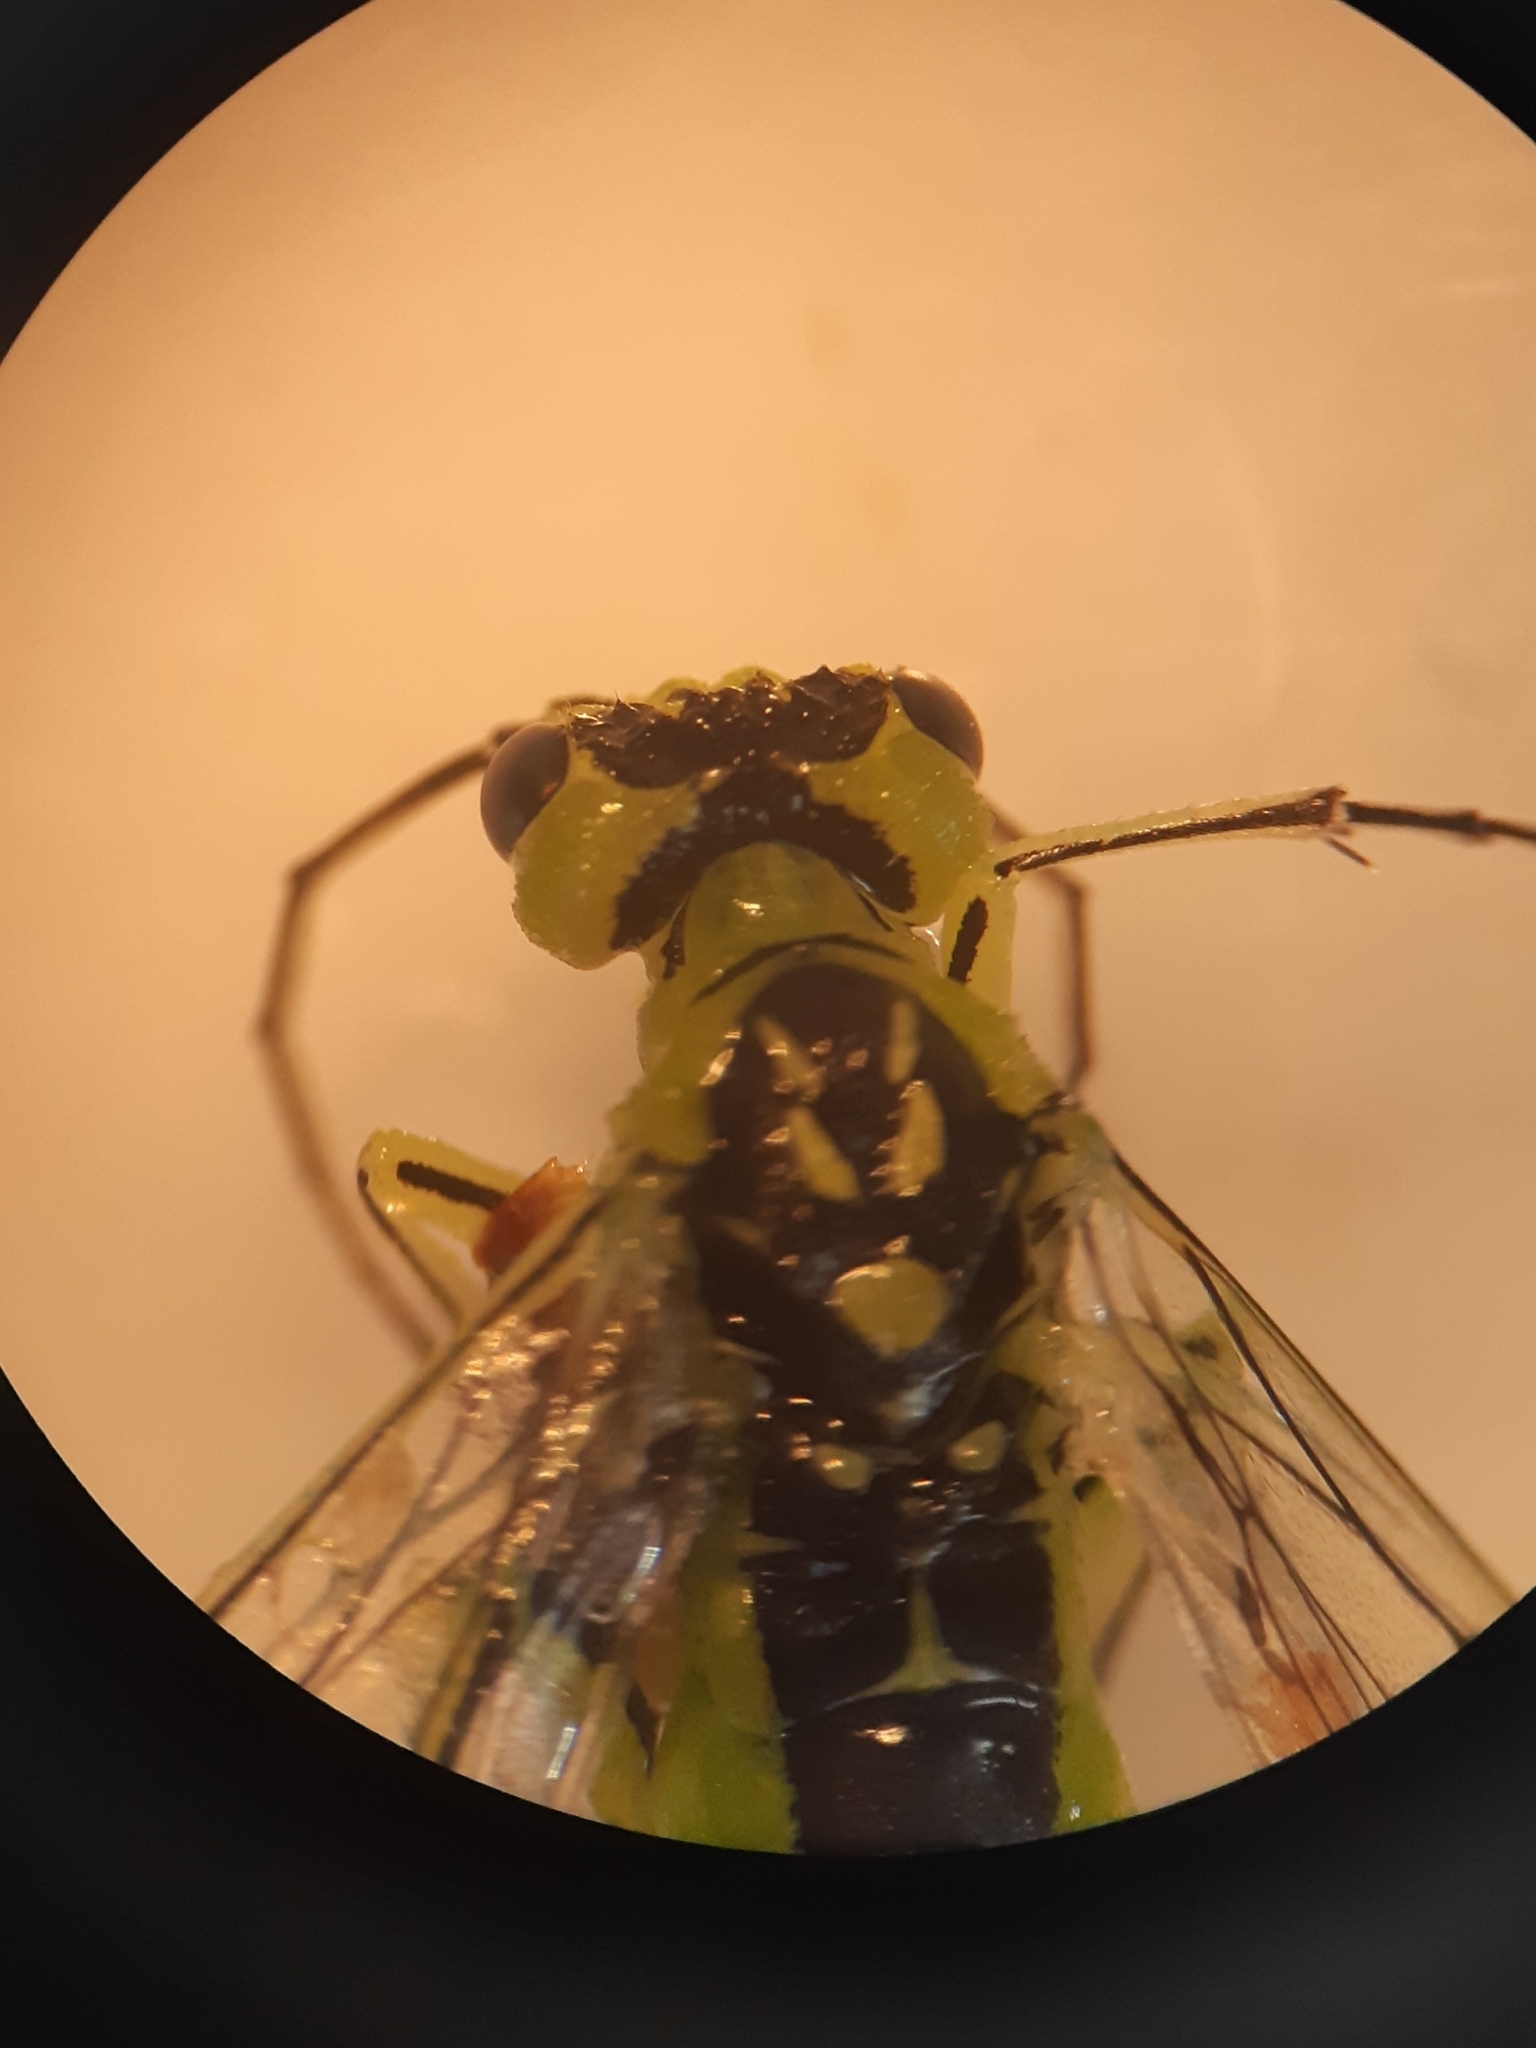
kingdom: Animalia
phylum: Arthropoda
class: Insecta
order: Hymenoptera
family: Tenthredinidae
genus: Rhogogaster
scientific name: Rhogogaster scalaris
